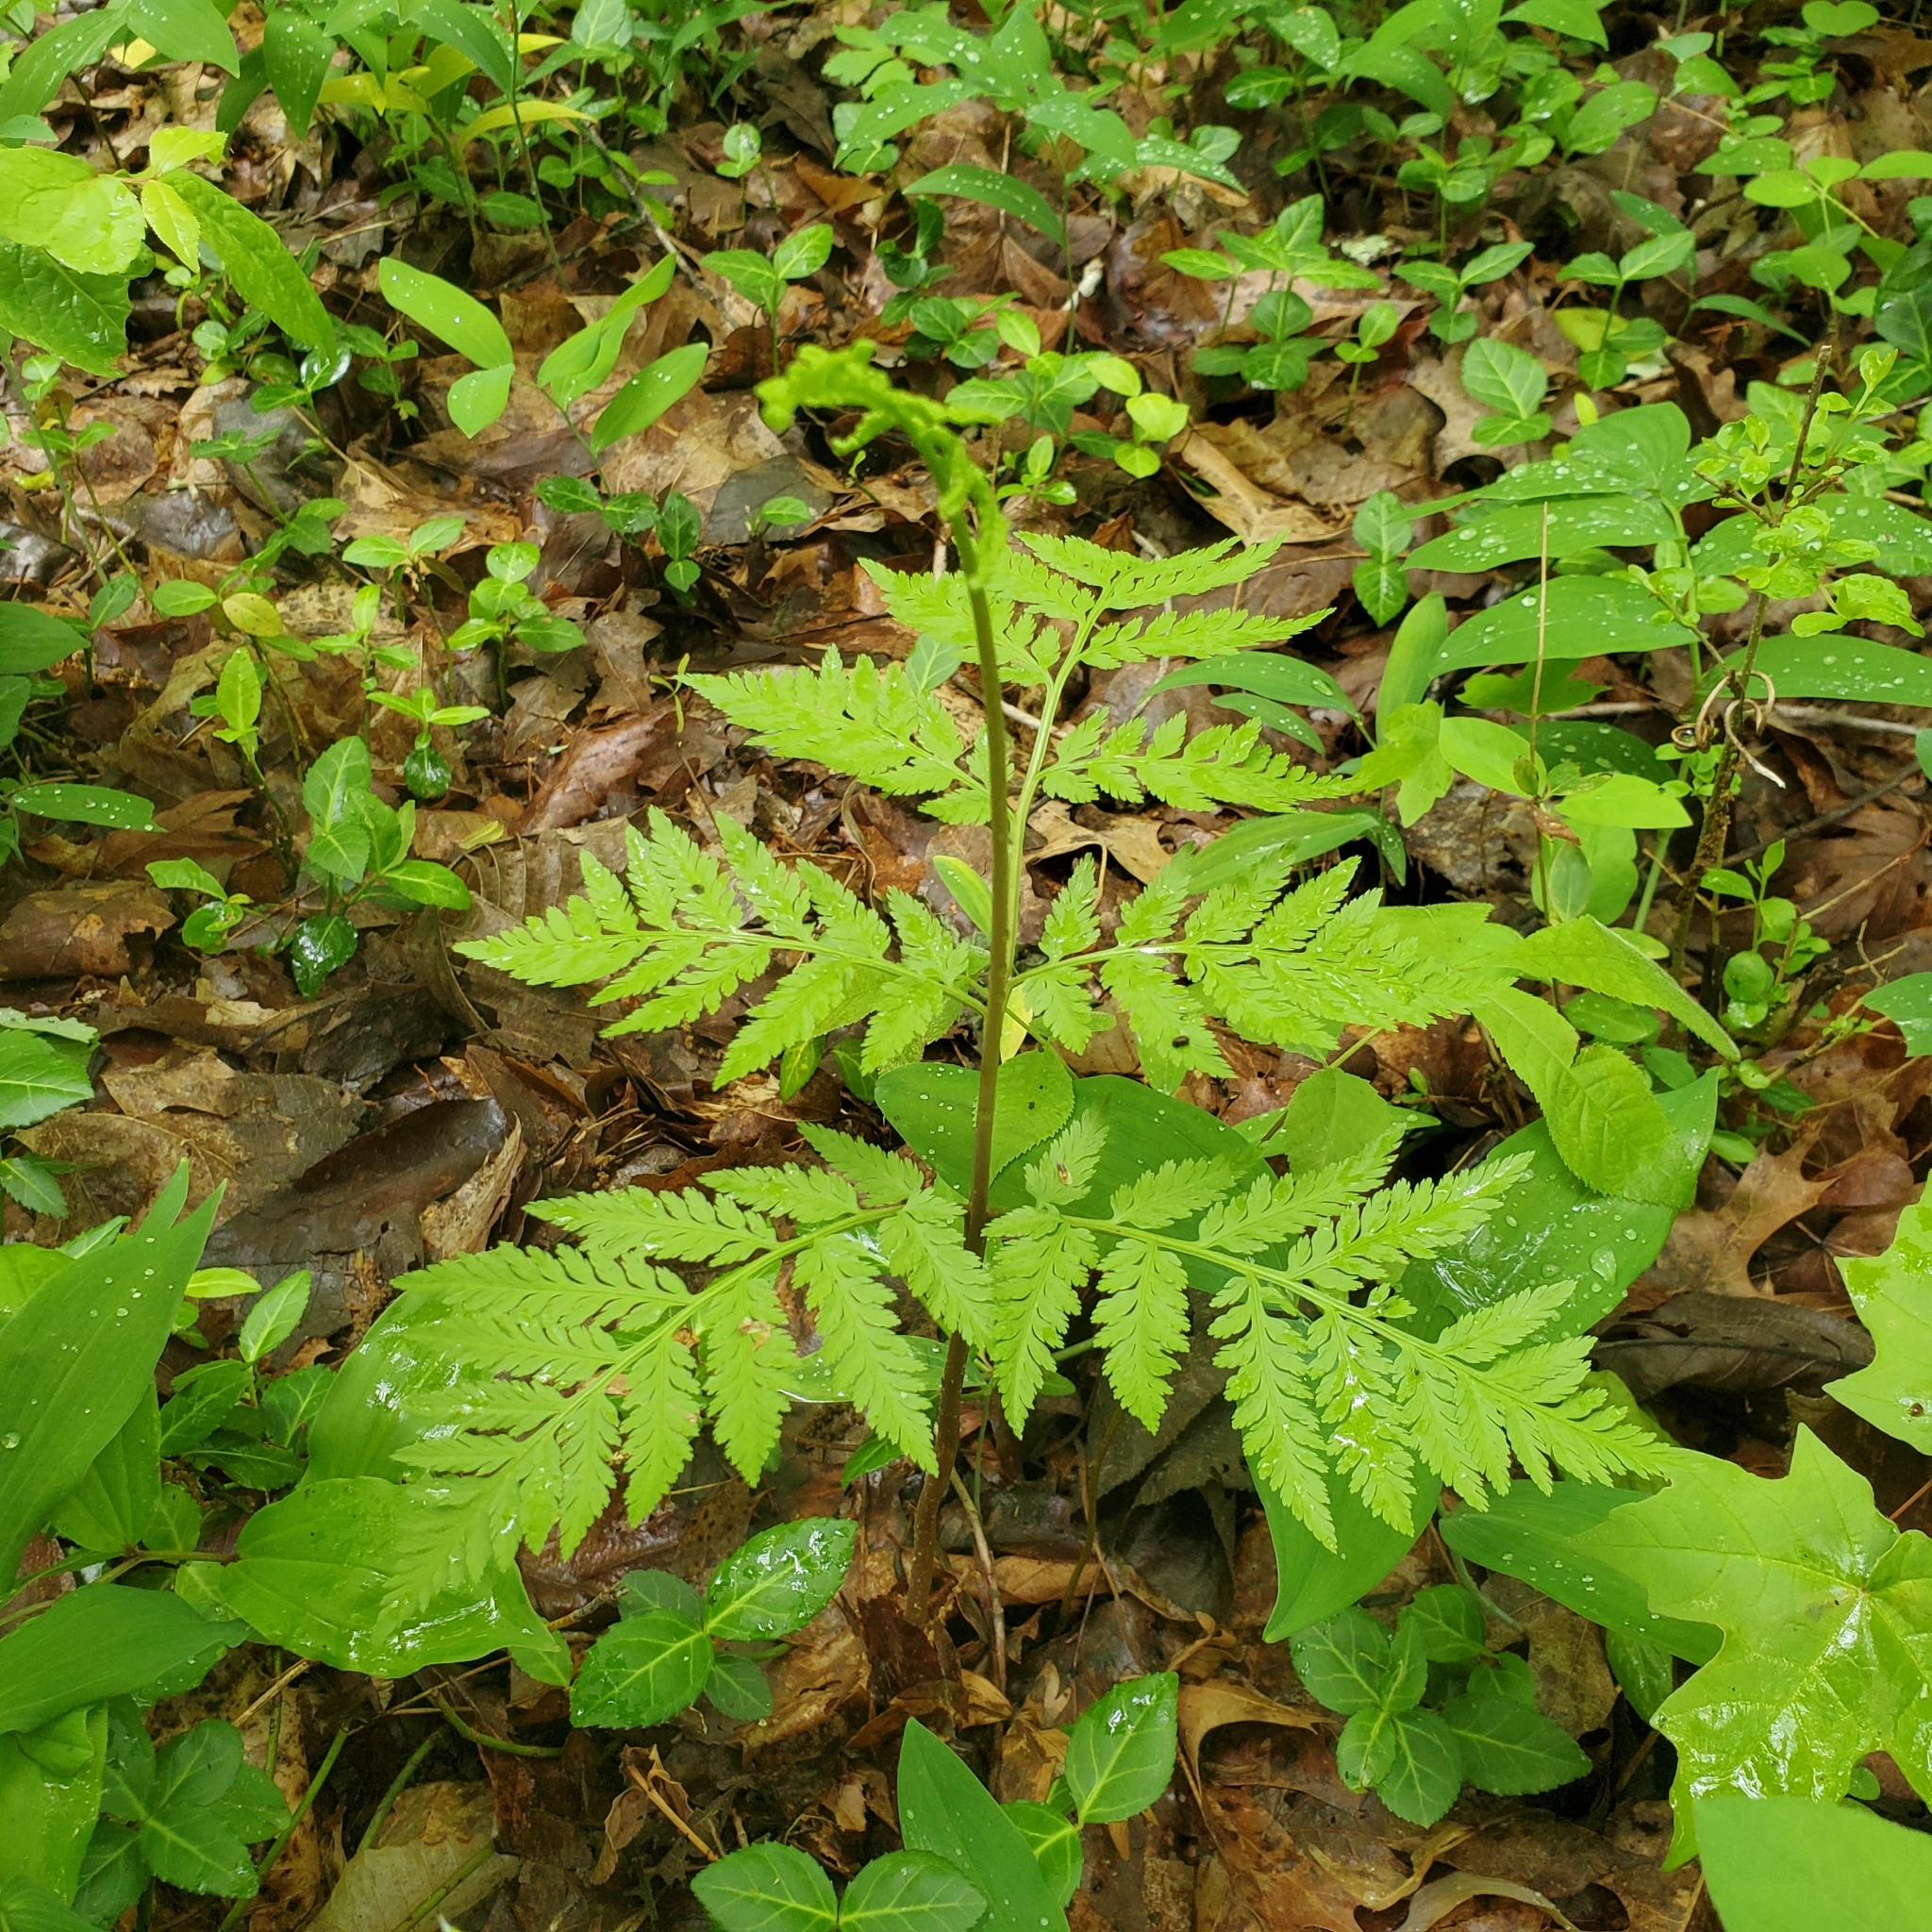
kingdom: Plantae
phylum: Tracheophyta
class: Polypodiopsida
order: Ophioglossales
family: Ophioglossaceae
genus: Botrypus
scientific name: Botrypus virginianus
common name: Common grapefern
